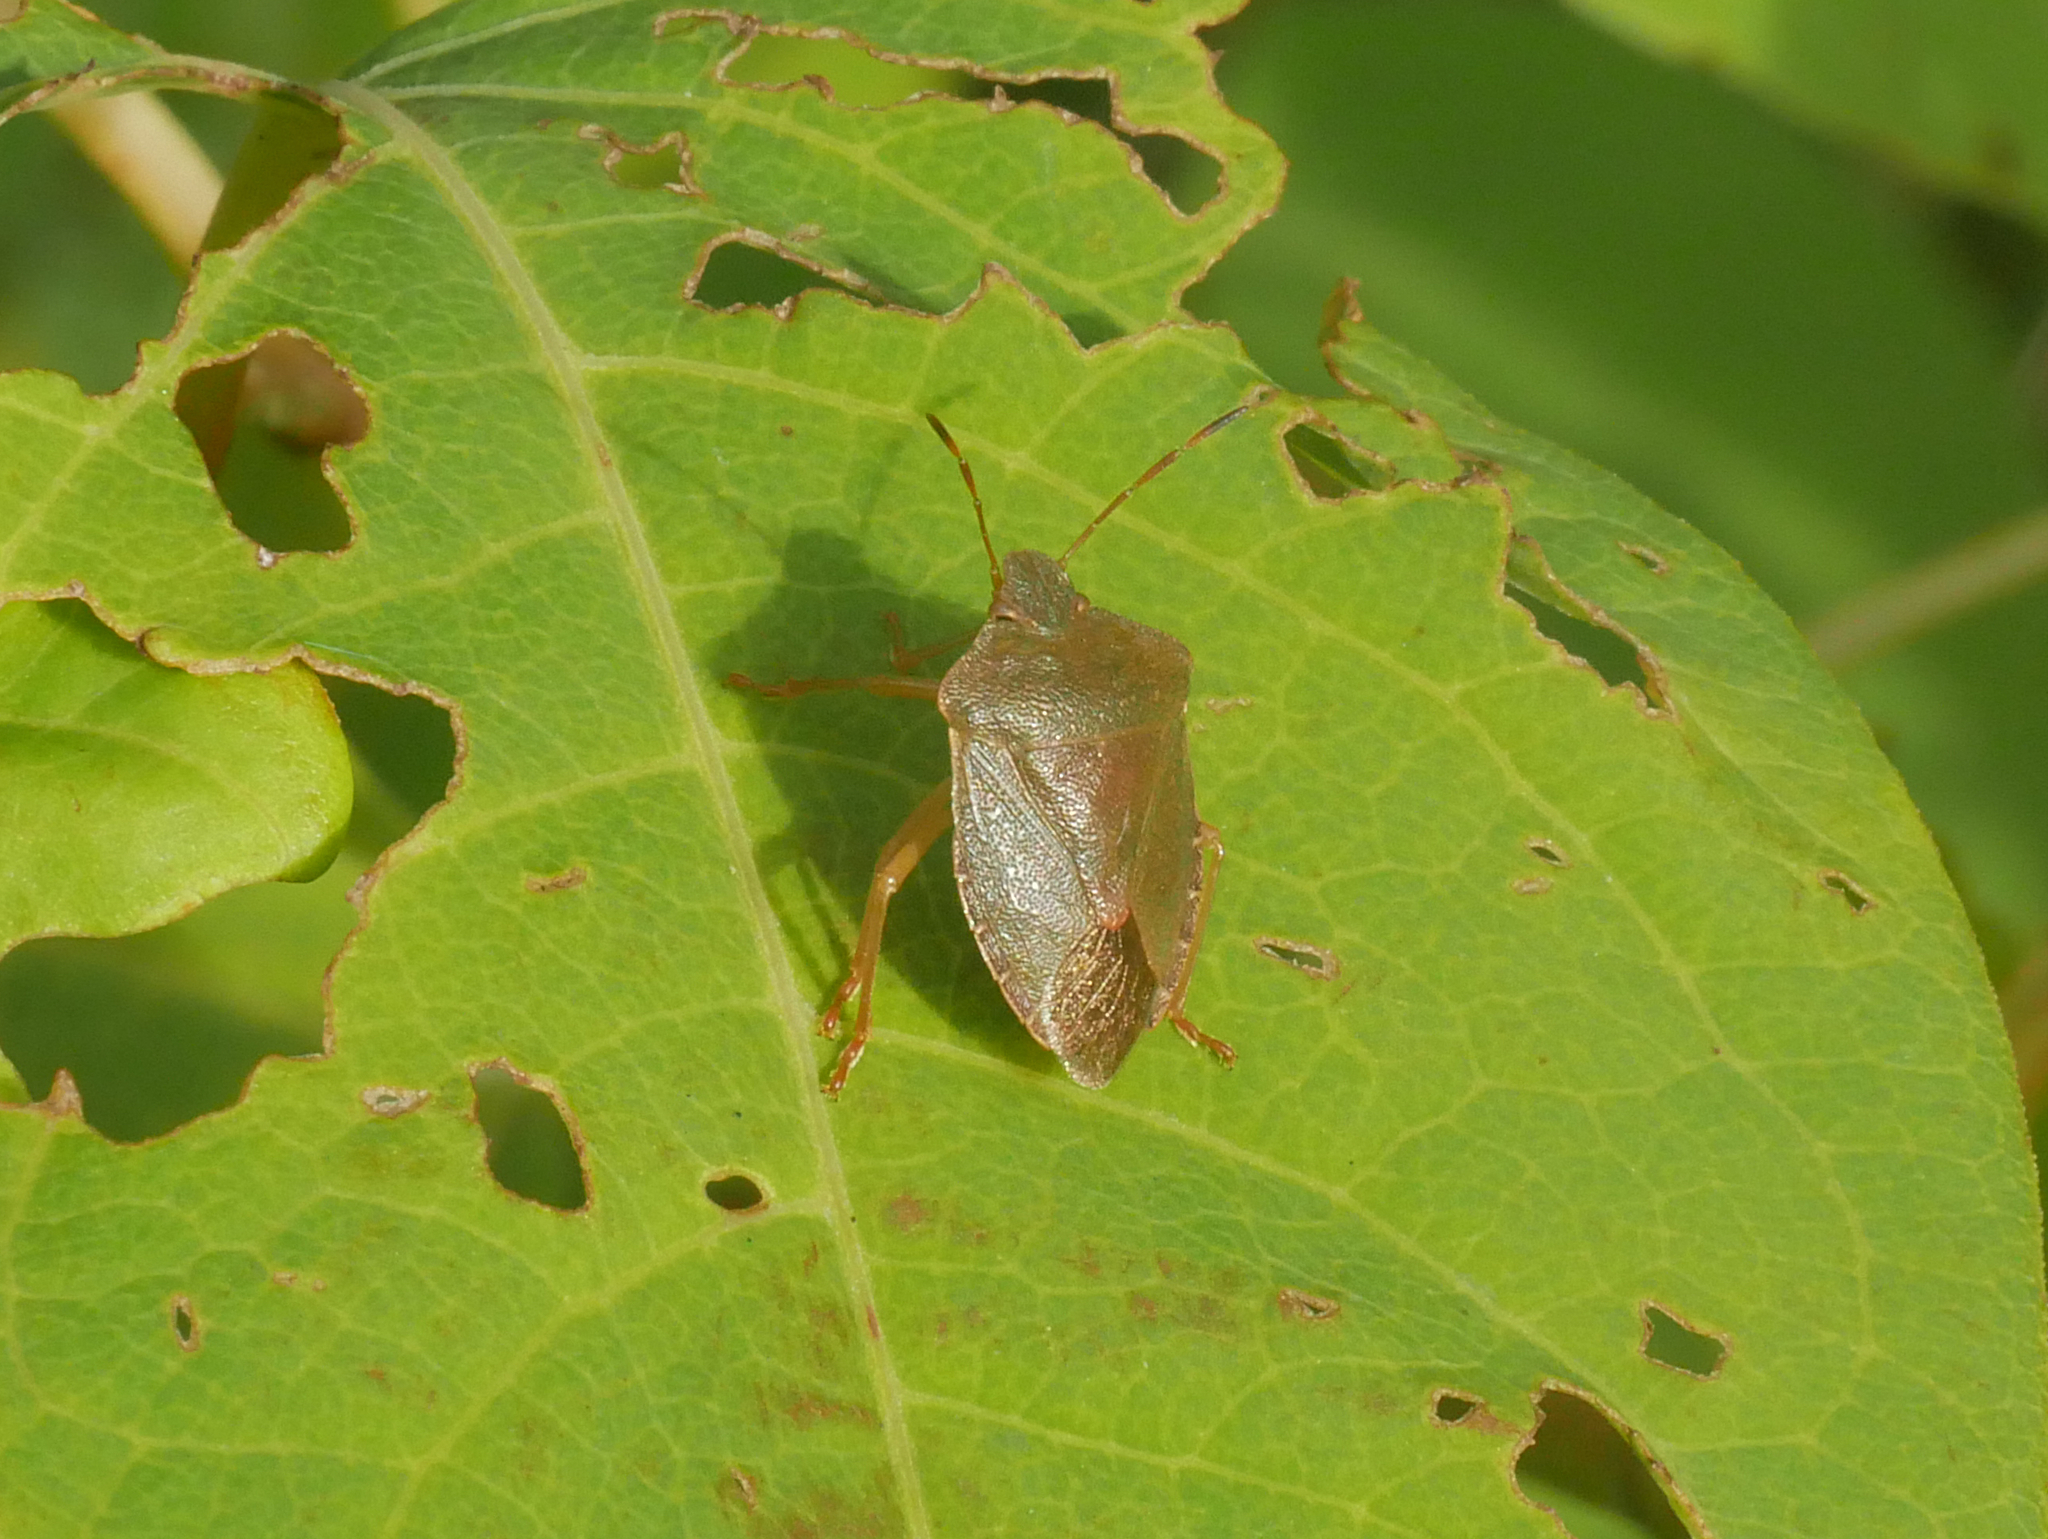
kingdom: Animalia
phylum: Arthropoda
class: Insecta
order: Hemiptera
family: Pentatomidae
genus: Palomena
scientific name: Palomena prasina
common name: Green shieldbug
